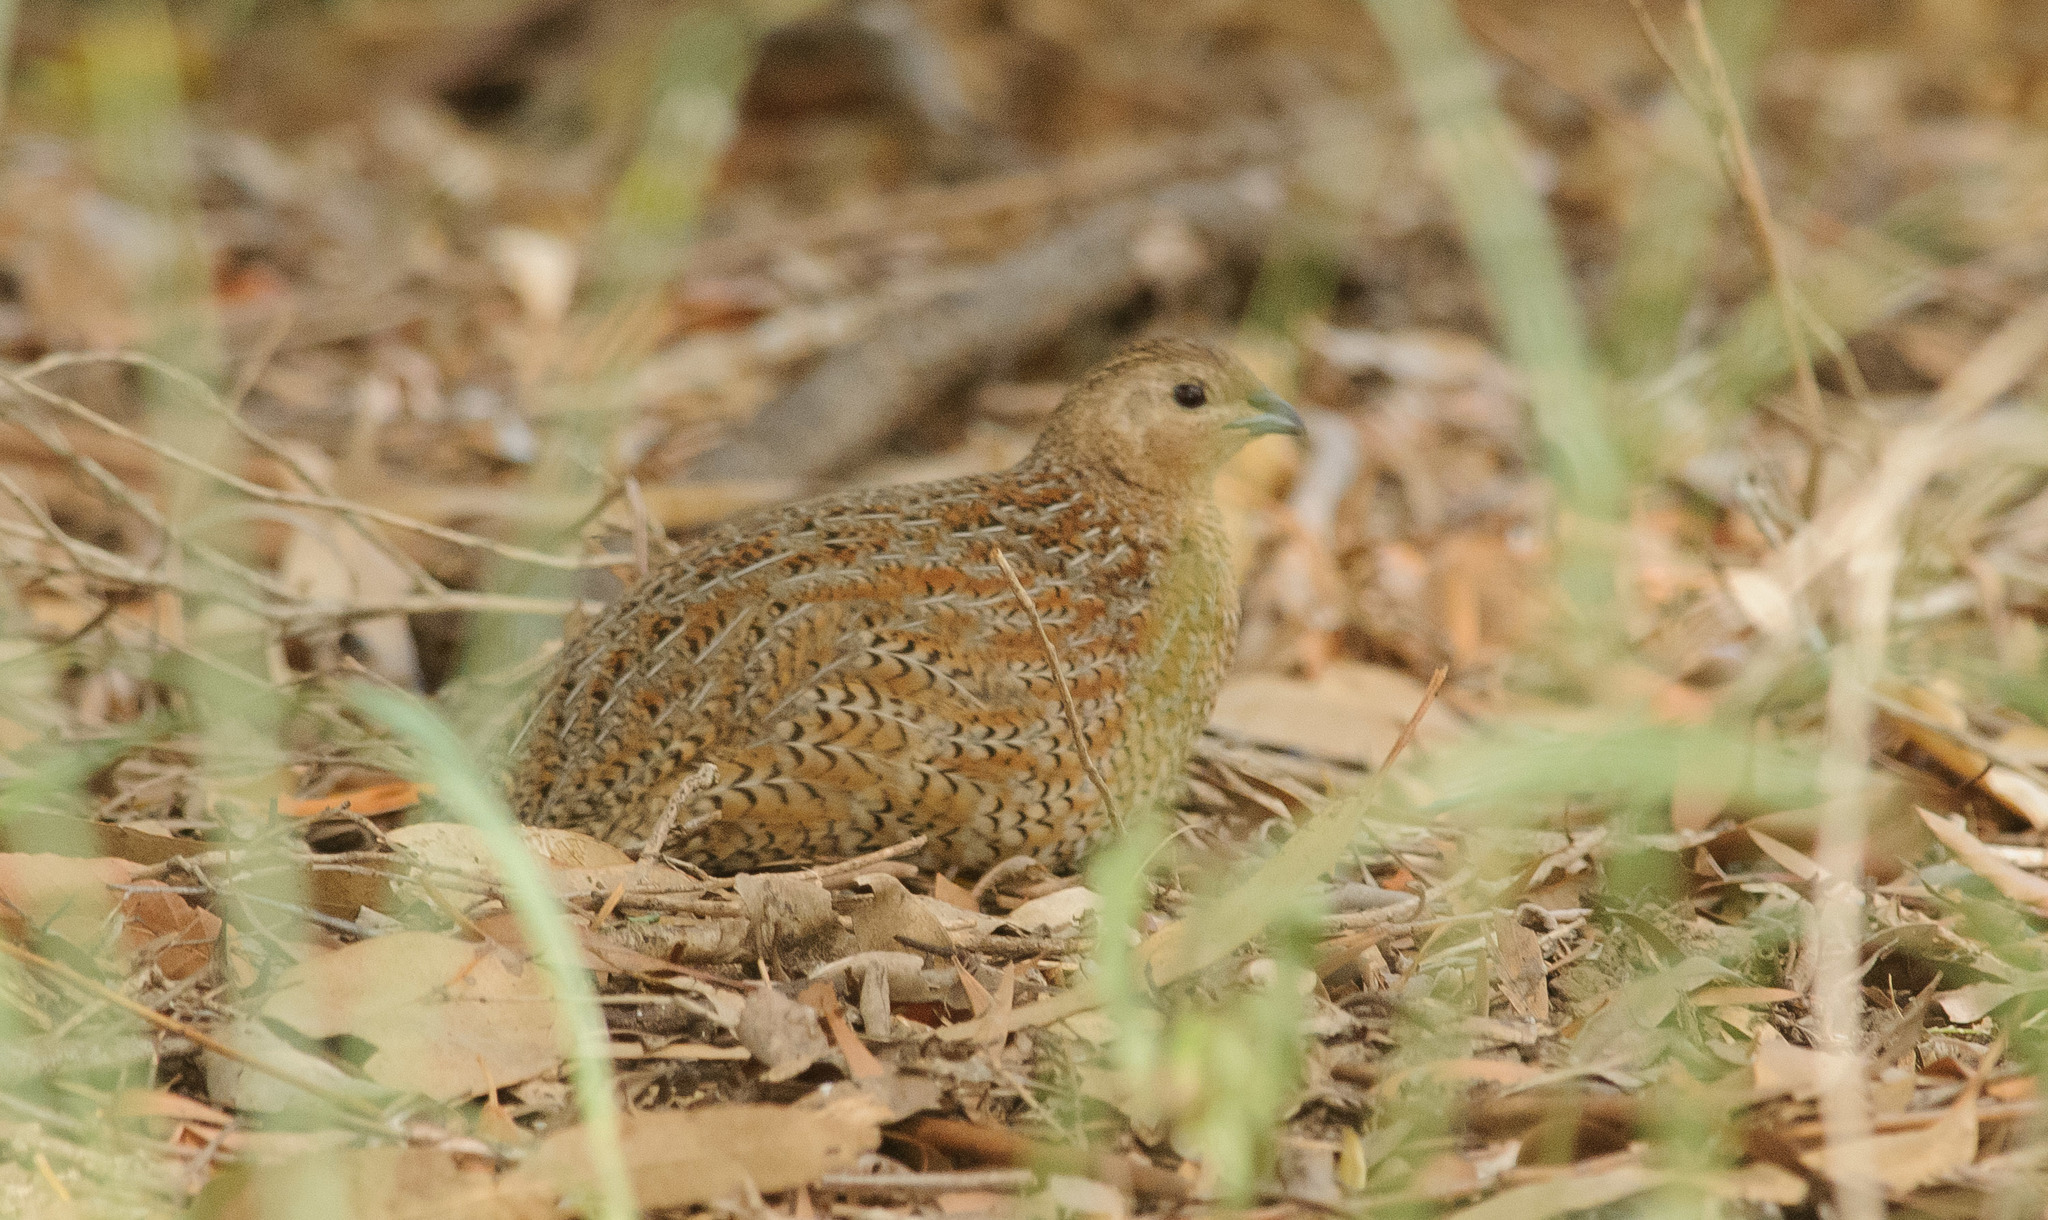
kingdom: Animalia
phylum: Chordata
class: Aves
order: Galliformes
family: Phasianidae
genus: Synoicus
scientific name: Synoicus ypsilophorus
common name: Brown quail
